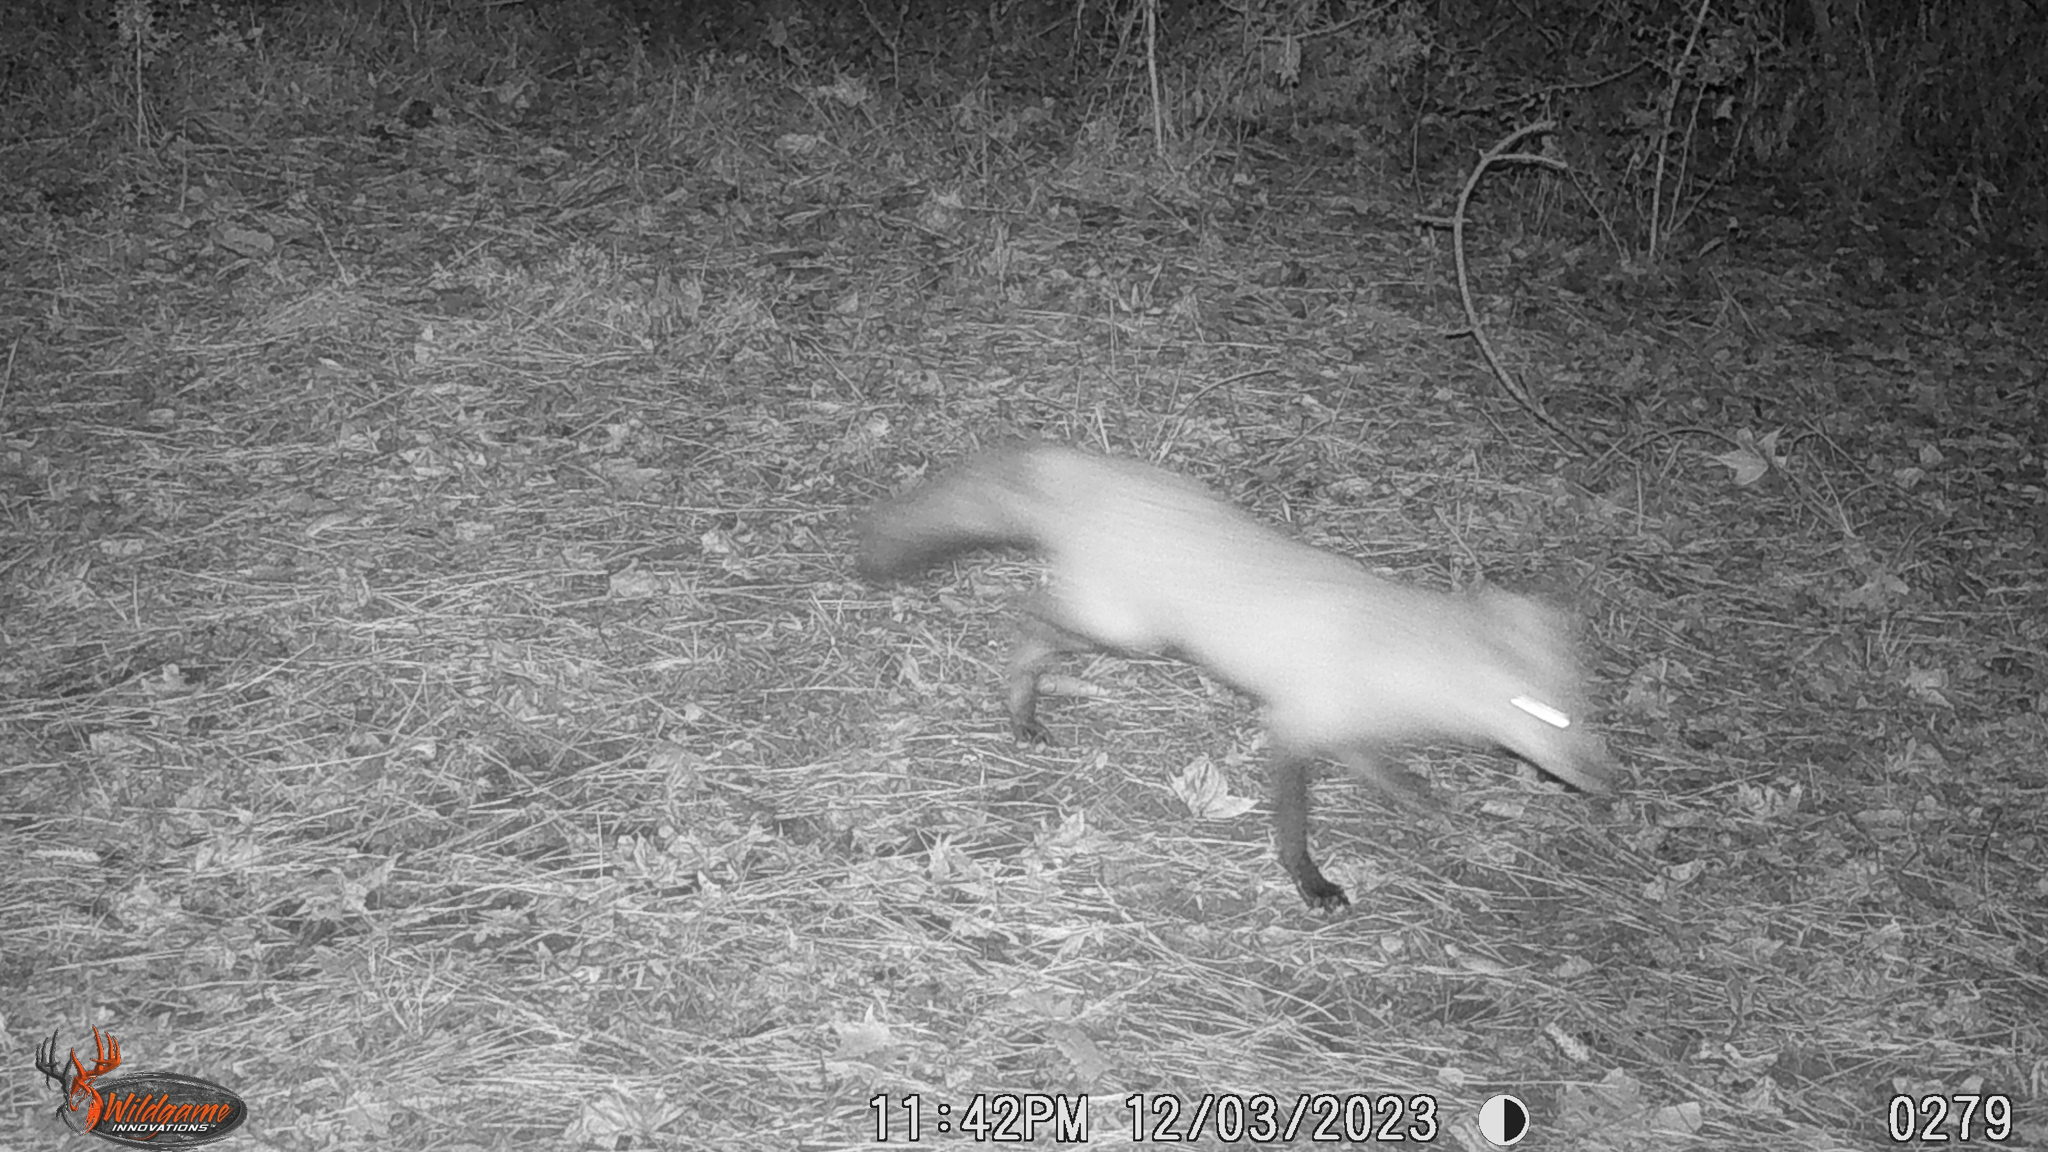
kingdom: Animalia
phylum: Chordata
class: Mammalia
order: Carnivora
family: Canidae
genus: Vulpes
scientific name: Vulpes vulpes
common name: Red fox
